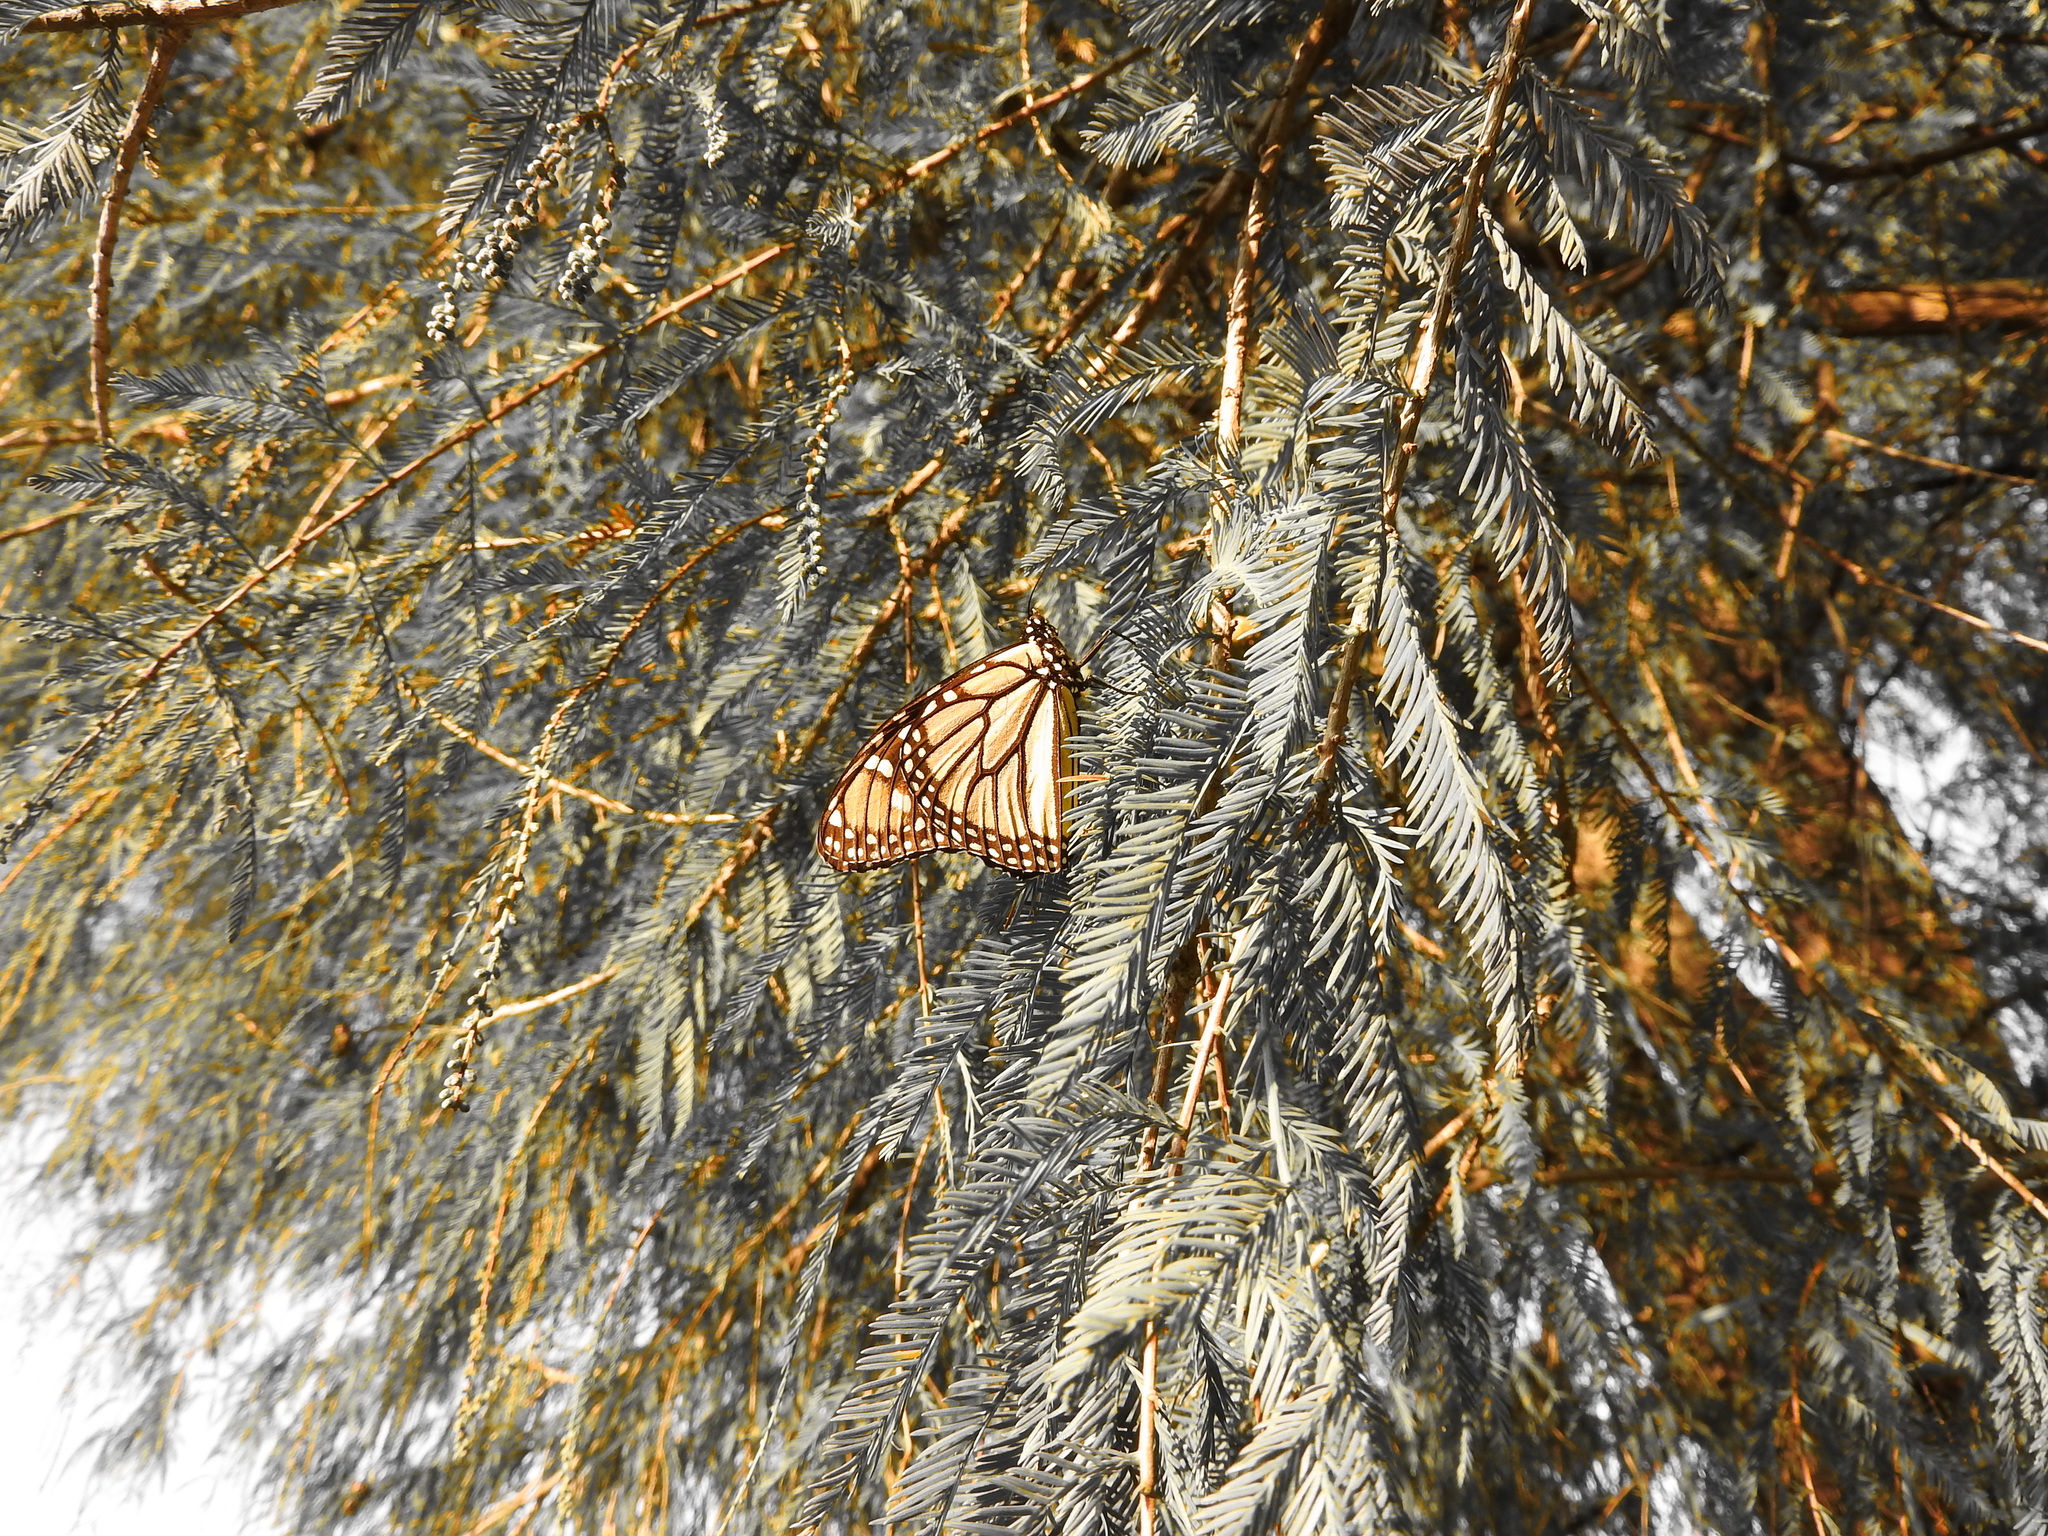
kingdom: Animalia
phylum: Arthropoda
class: Insecta
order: Lepidoptera
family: Nymphalidae
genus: Danaus
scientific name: Danaus plexippus
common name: Monarch
